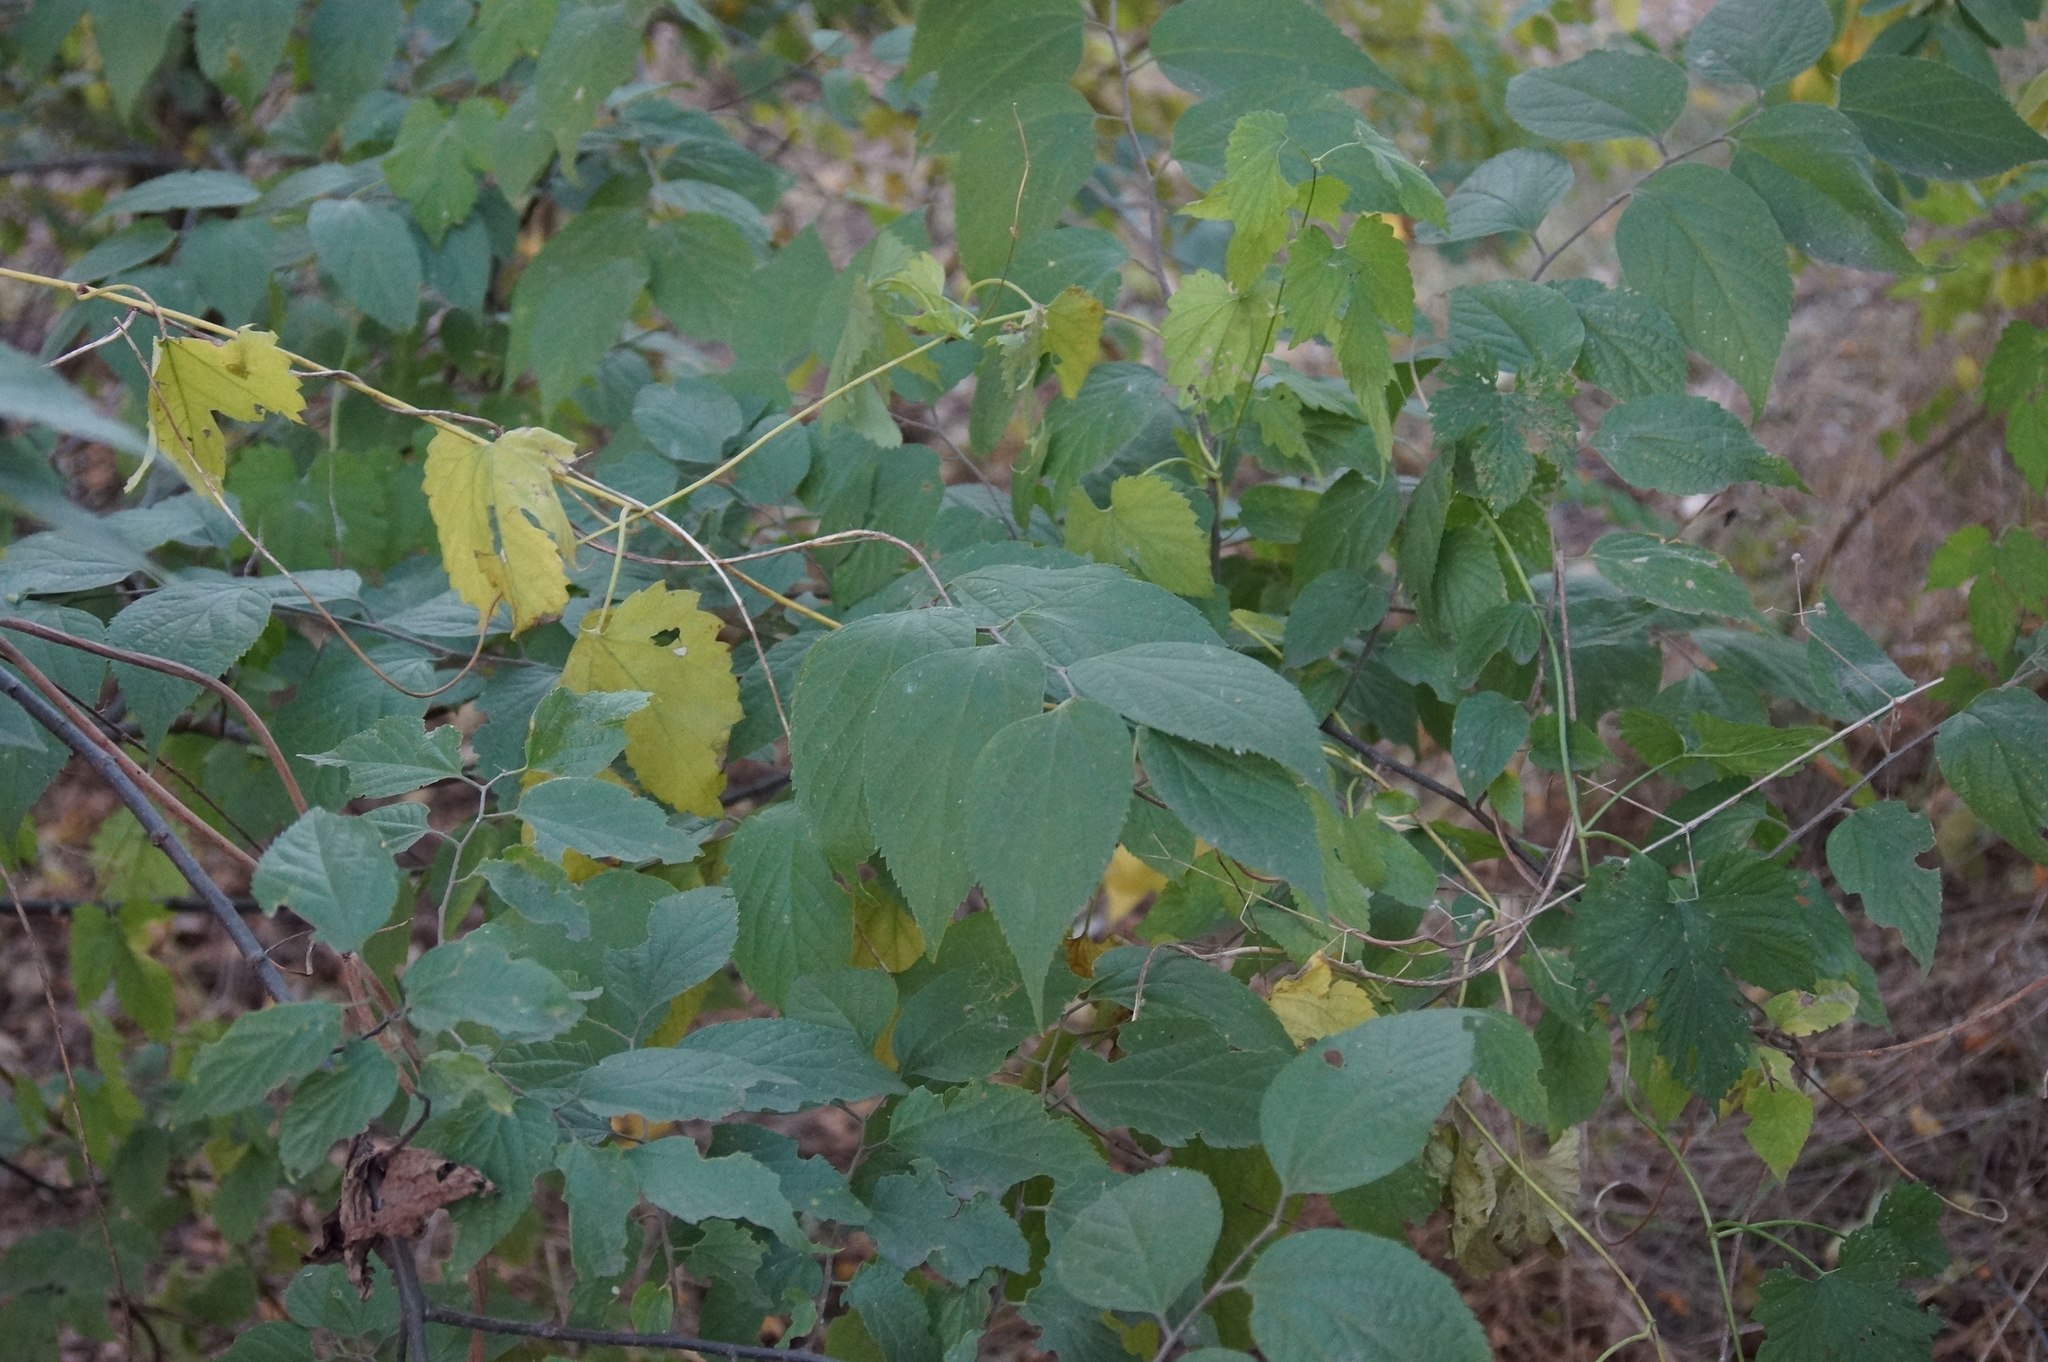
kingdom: Plantae
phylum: Tracheophyta
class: Magnoliopsida
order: Rosales
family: Cannabaceae
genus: Celtis
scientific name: Celtis occidentalis
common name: Common hackberry
